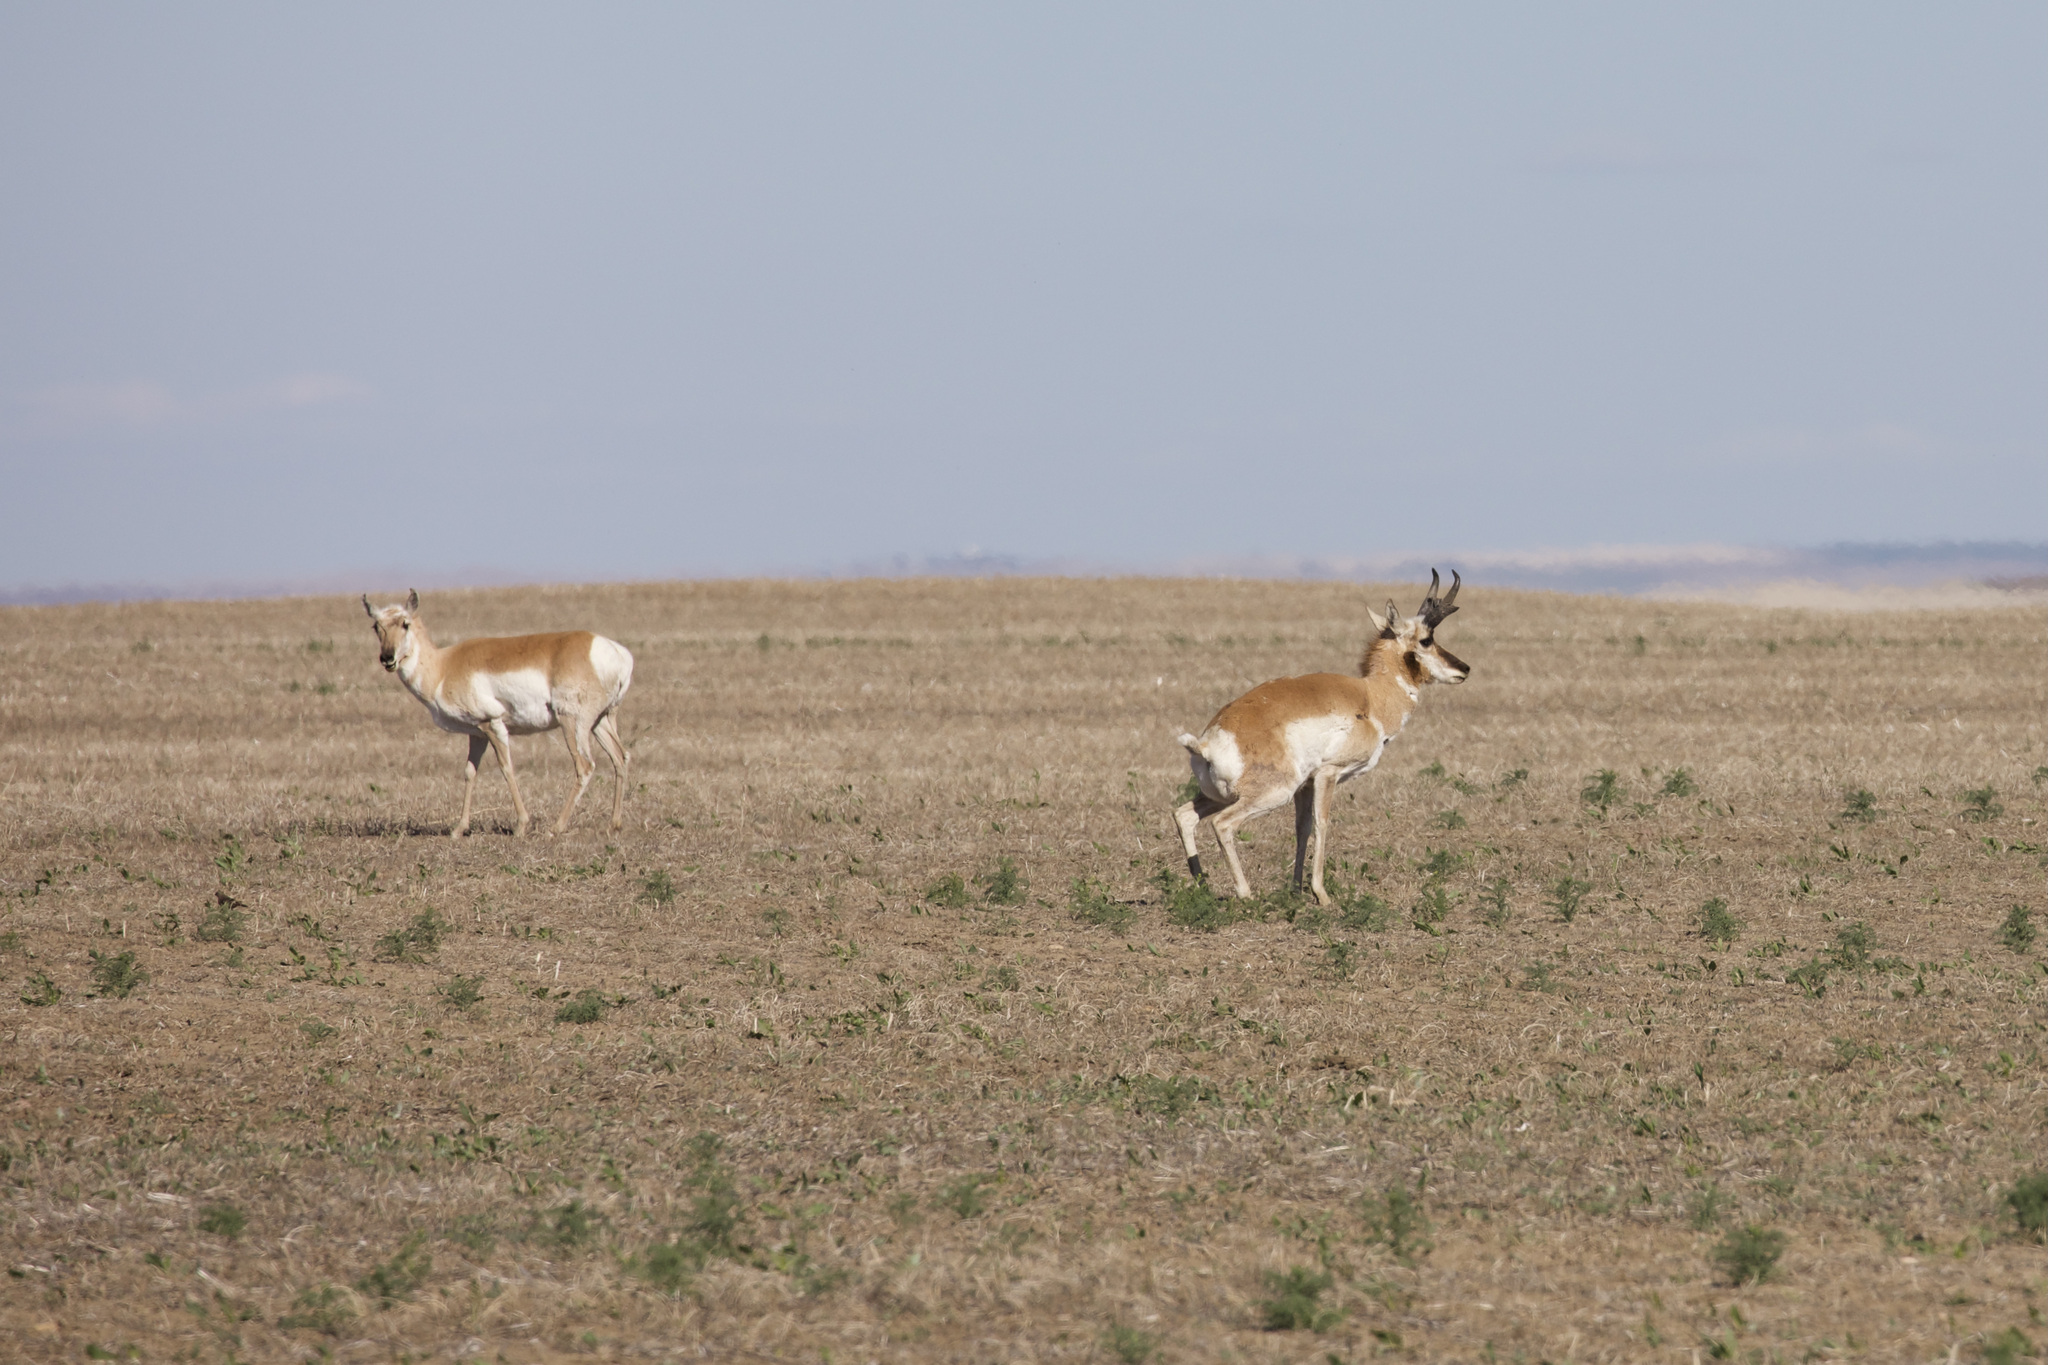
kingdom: Animalia
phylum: Chordata
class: Mammalia
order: Artiodactyla
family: Antilocapridae
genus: Antilocapra
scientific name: Antilocapra americana
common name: Pronghorn
